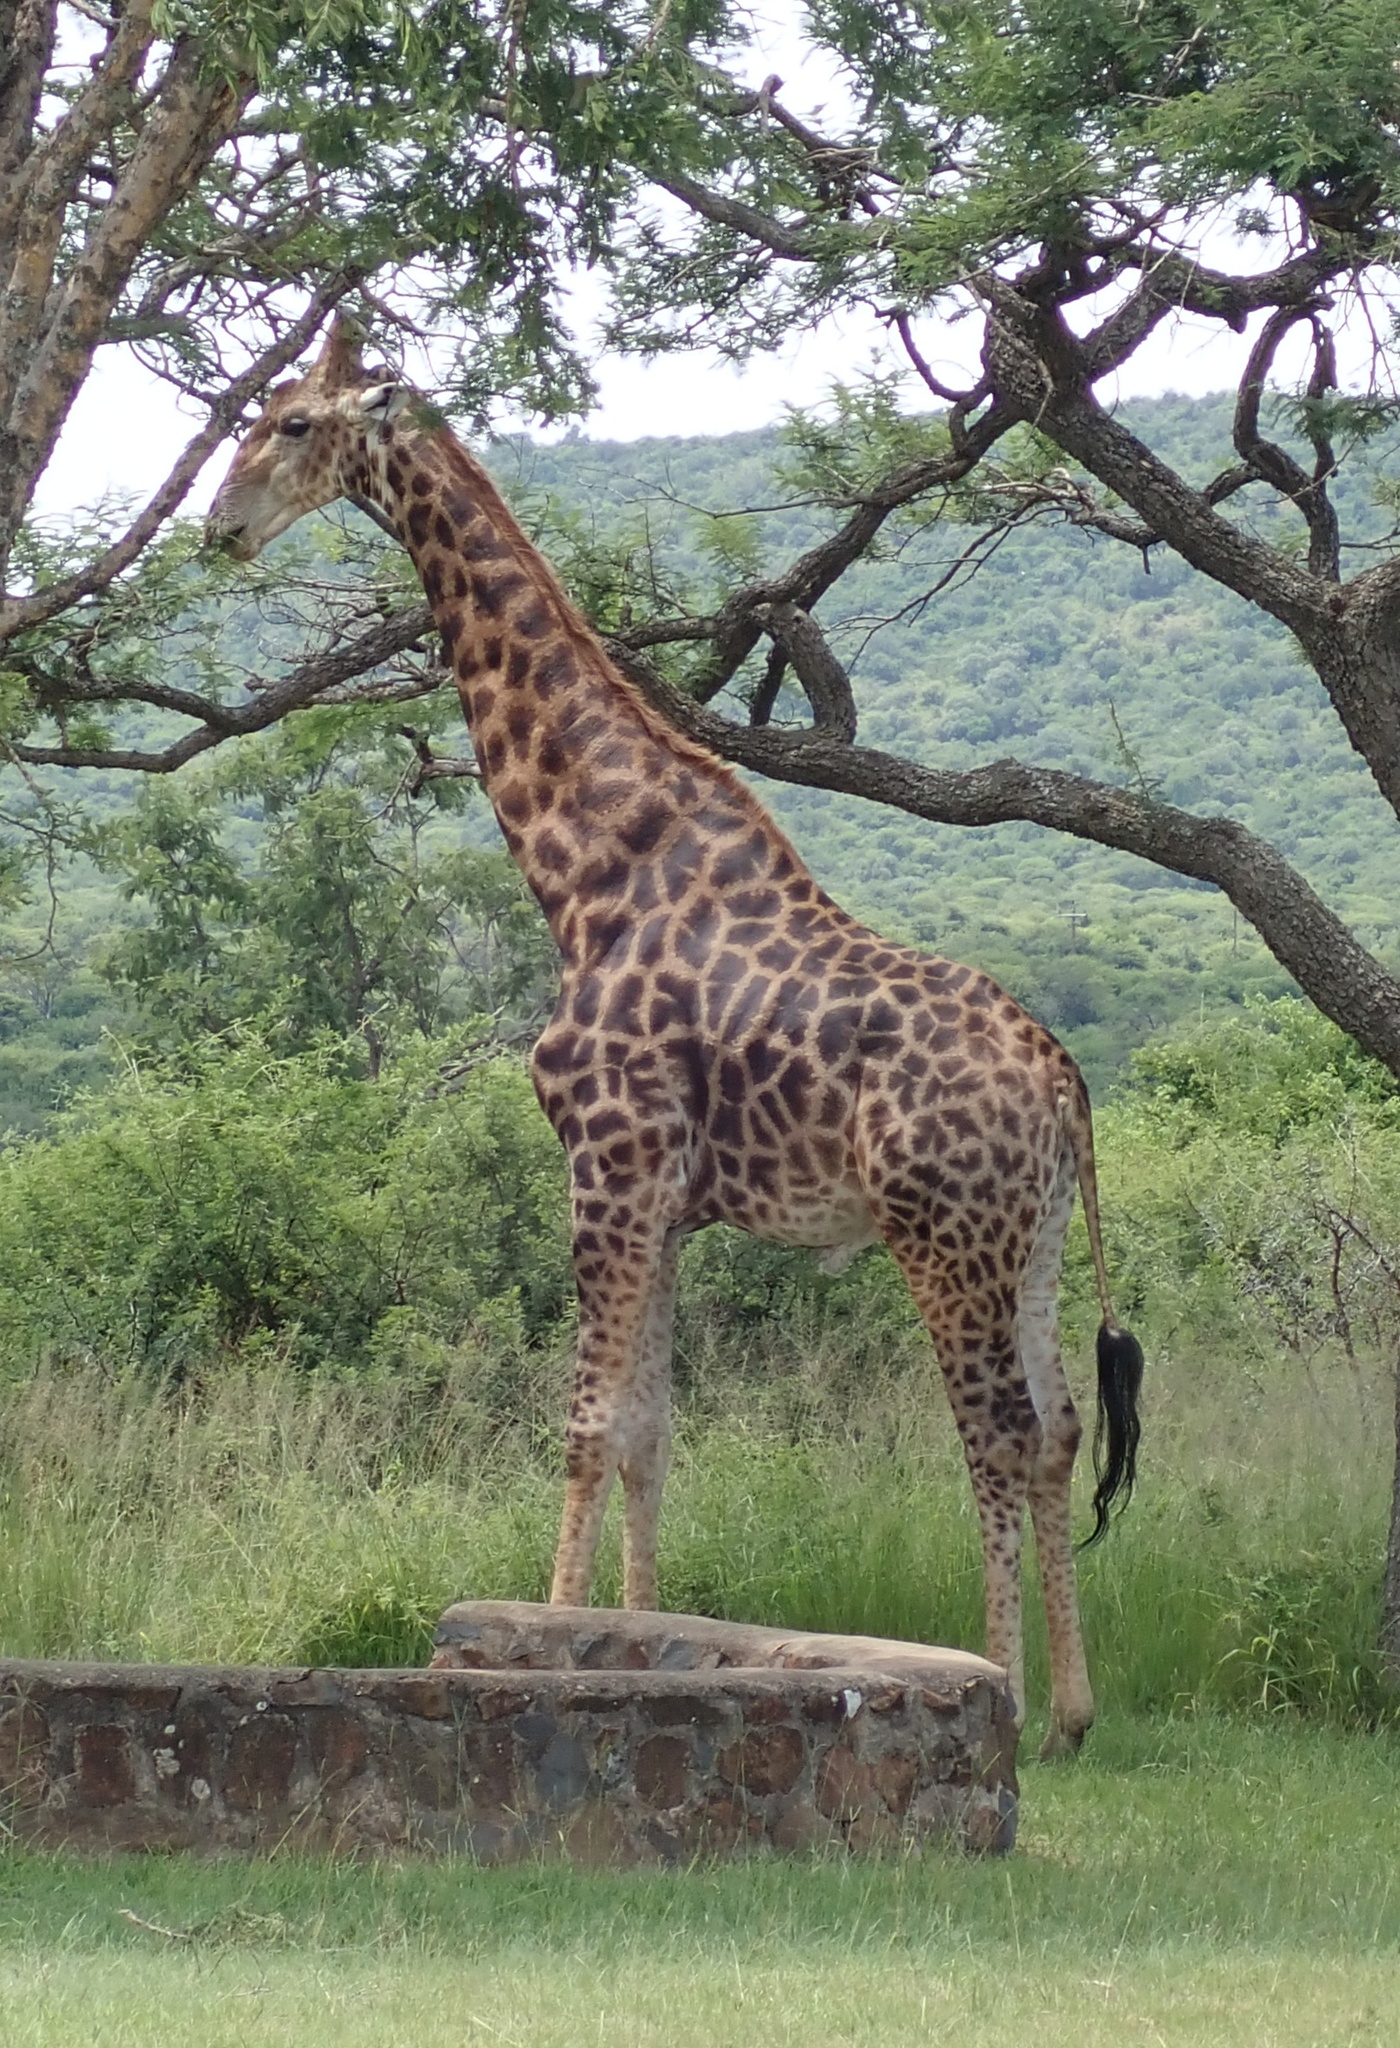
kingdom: Animalia
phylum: Chordata
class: Mammalia
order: Artiodactyla
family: Giraffidae
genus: Giraffa
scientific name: Giraffa giraffa
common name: Southern giraffe
